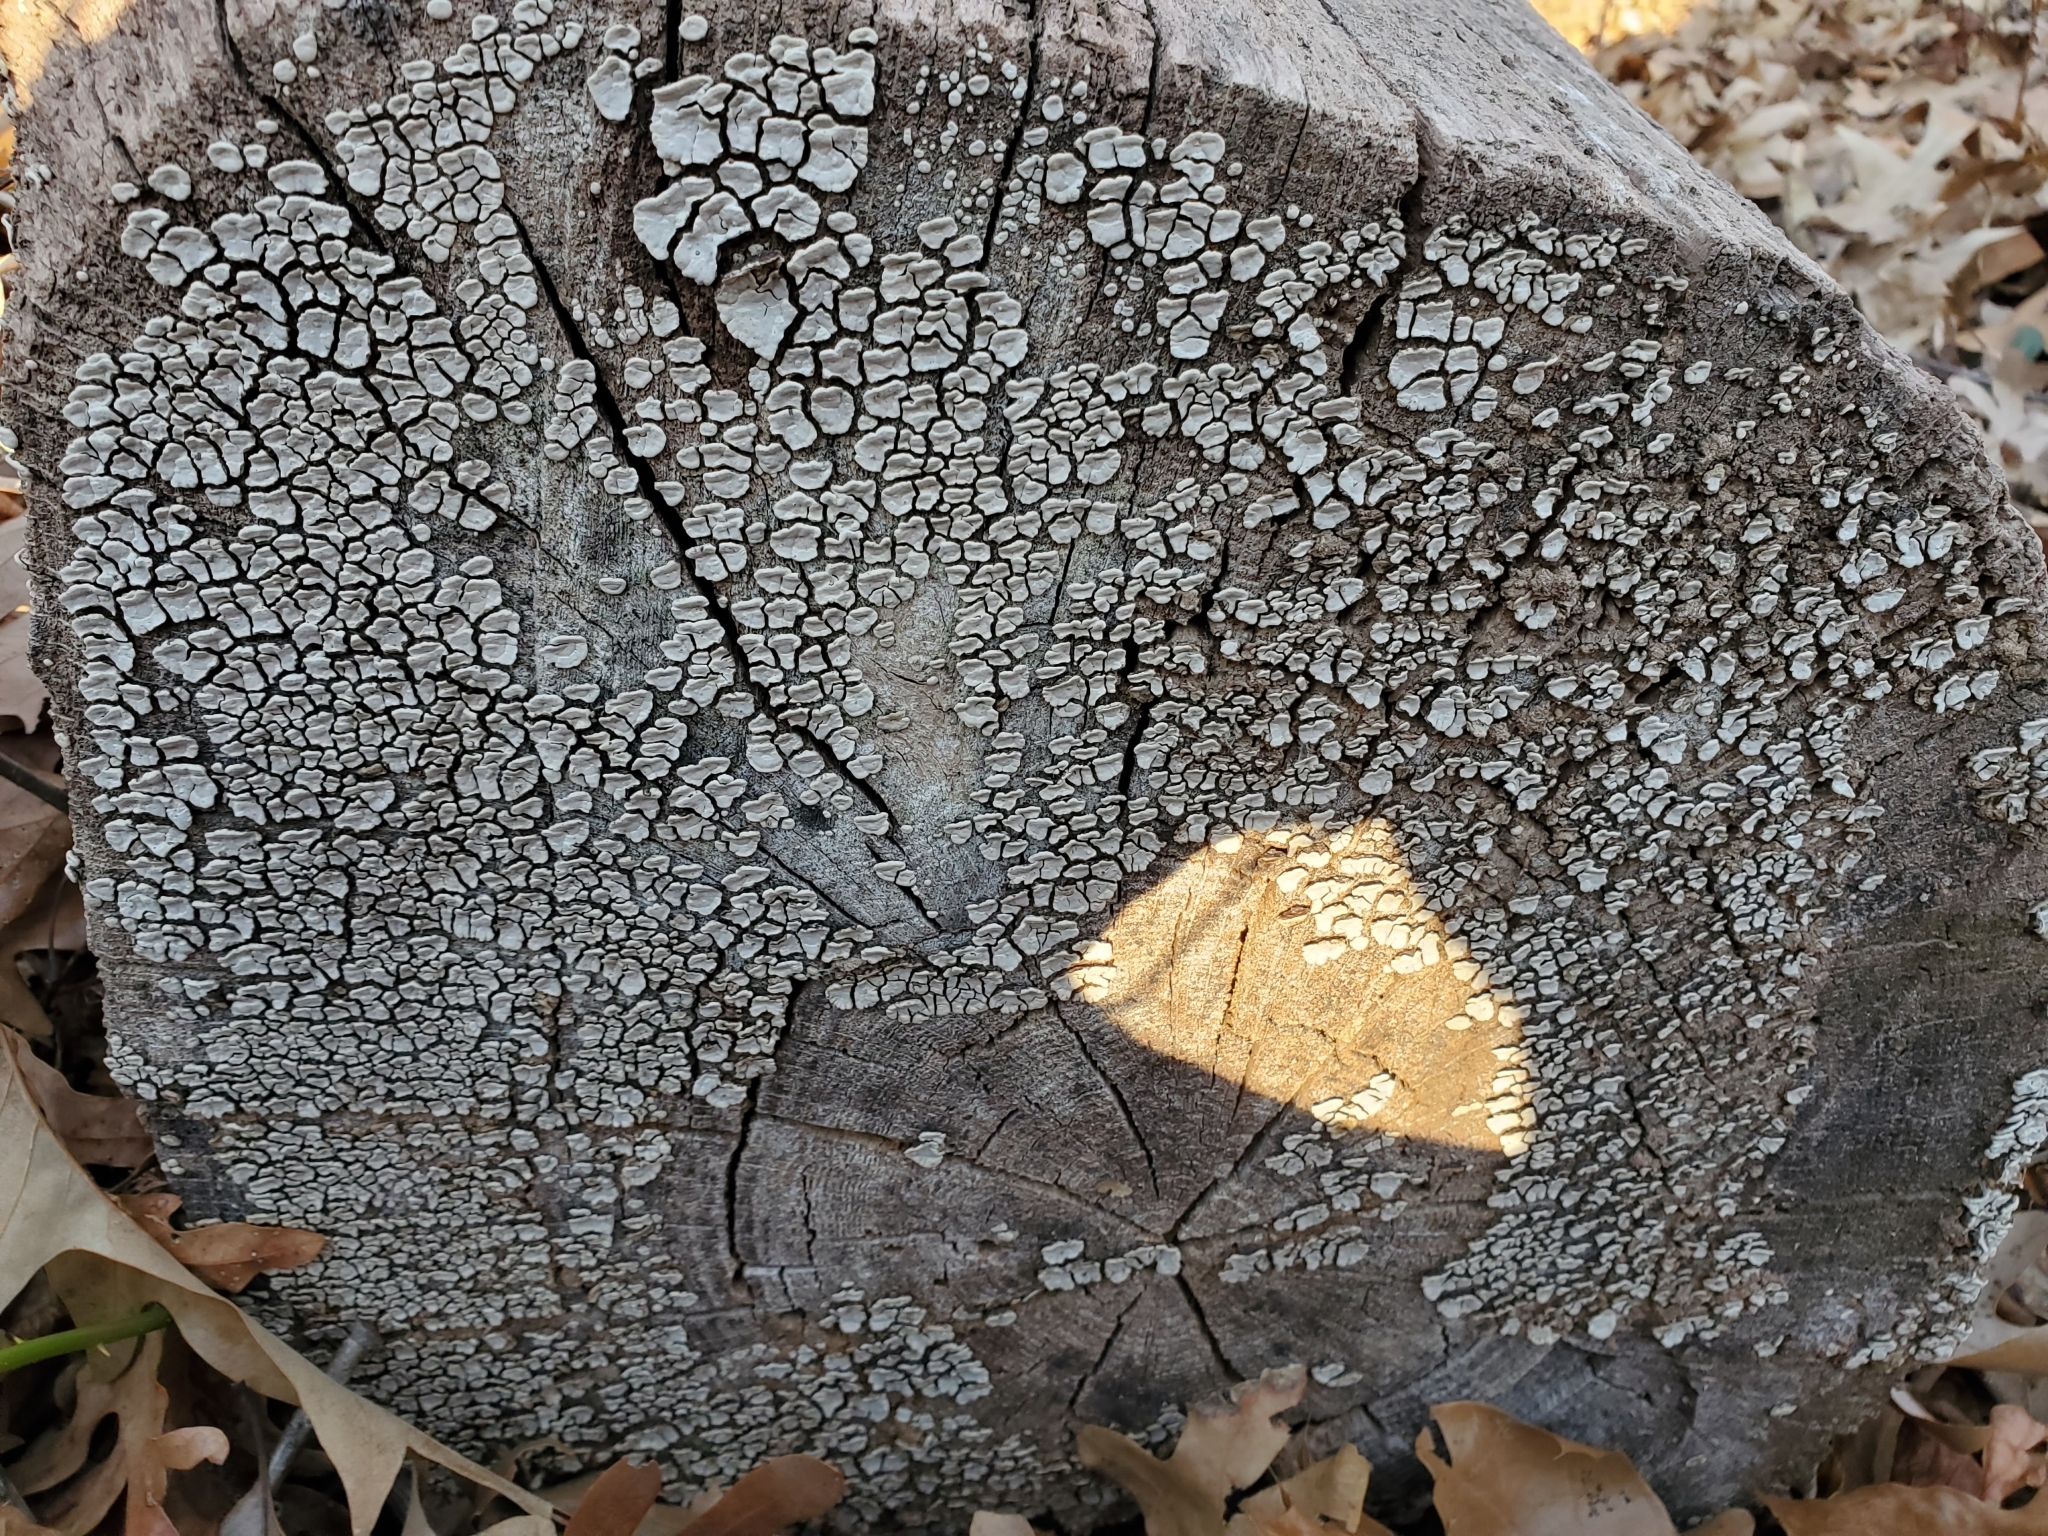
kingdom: Fungi
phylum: Basidiomycota
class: Agaricomycetes
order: Russulales
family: Stereaceae
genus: Xylobolus
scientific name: Xylobolus frustulatus
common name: Ceramic parchment
